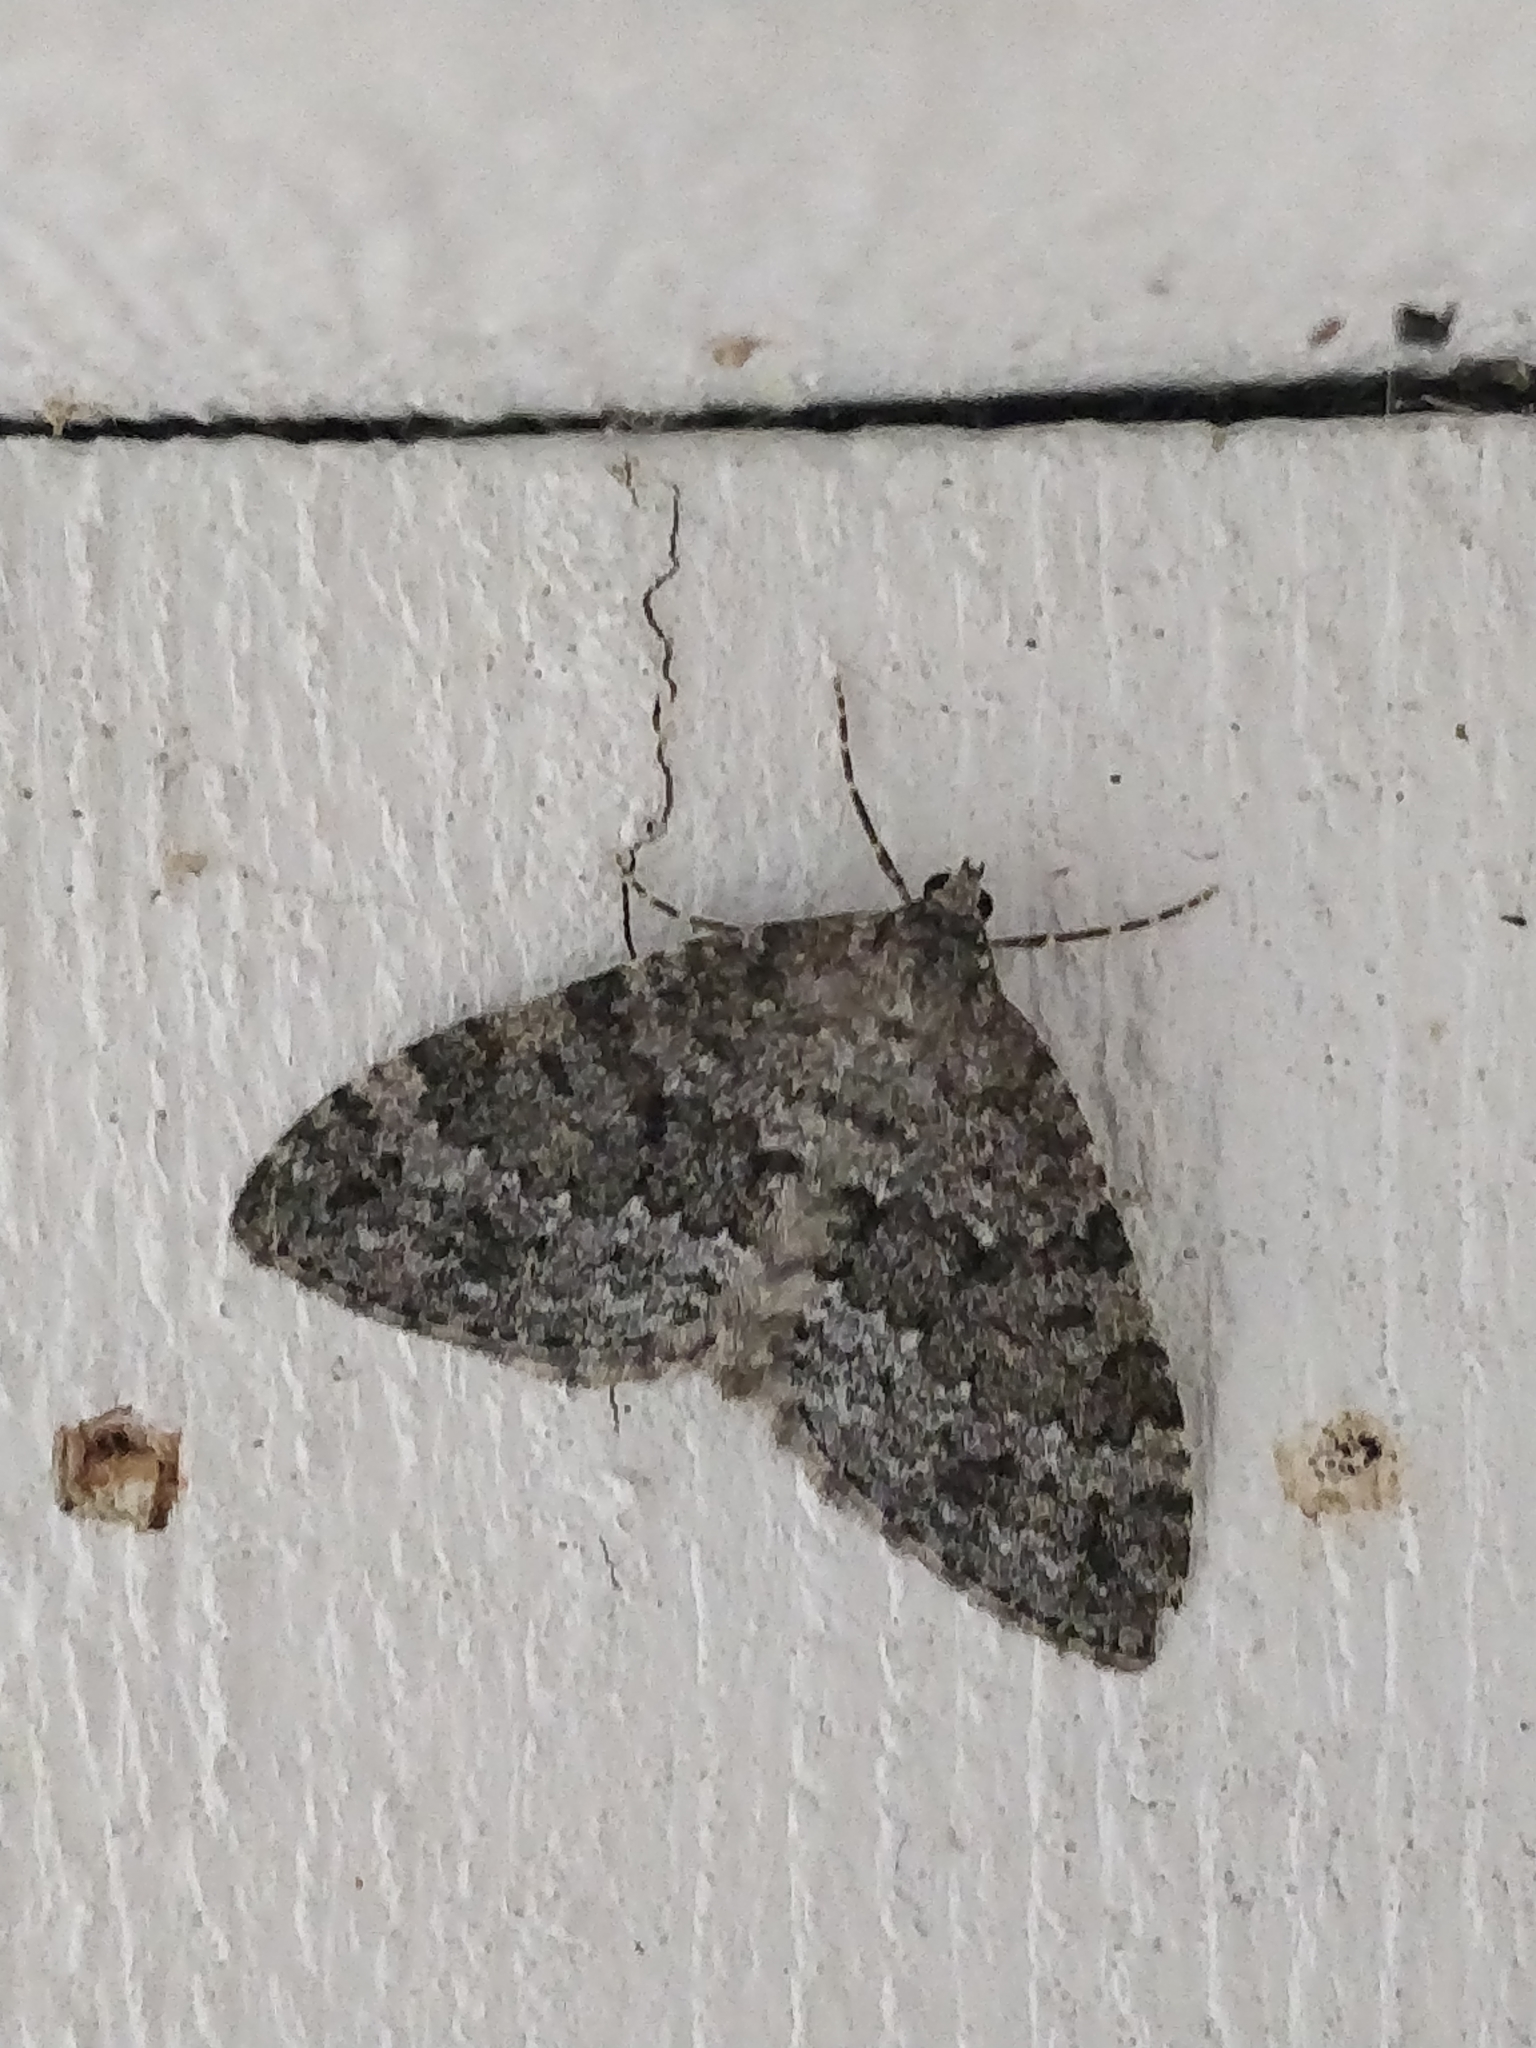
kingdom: Animalia
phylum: Arthropoda
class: Insecta
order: Lepidoptera
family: Geometridae
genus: Entephria
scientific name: Entephria caesiata
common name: Grey mountain moth
